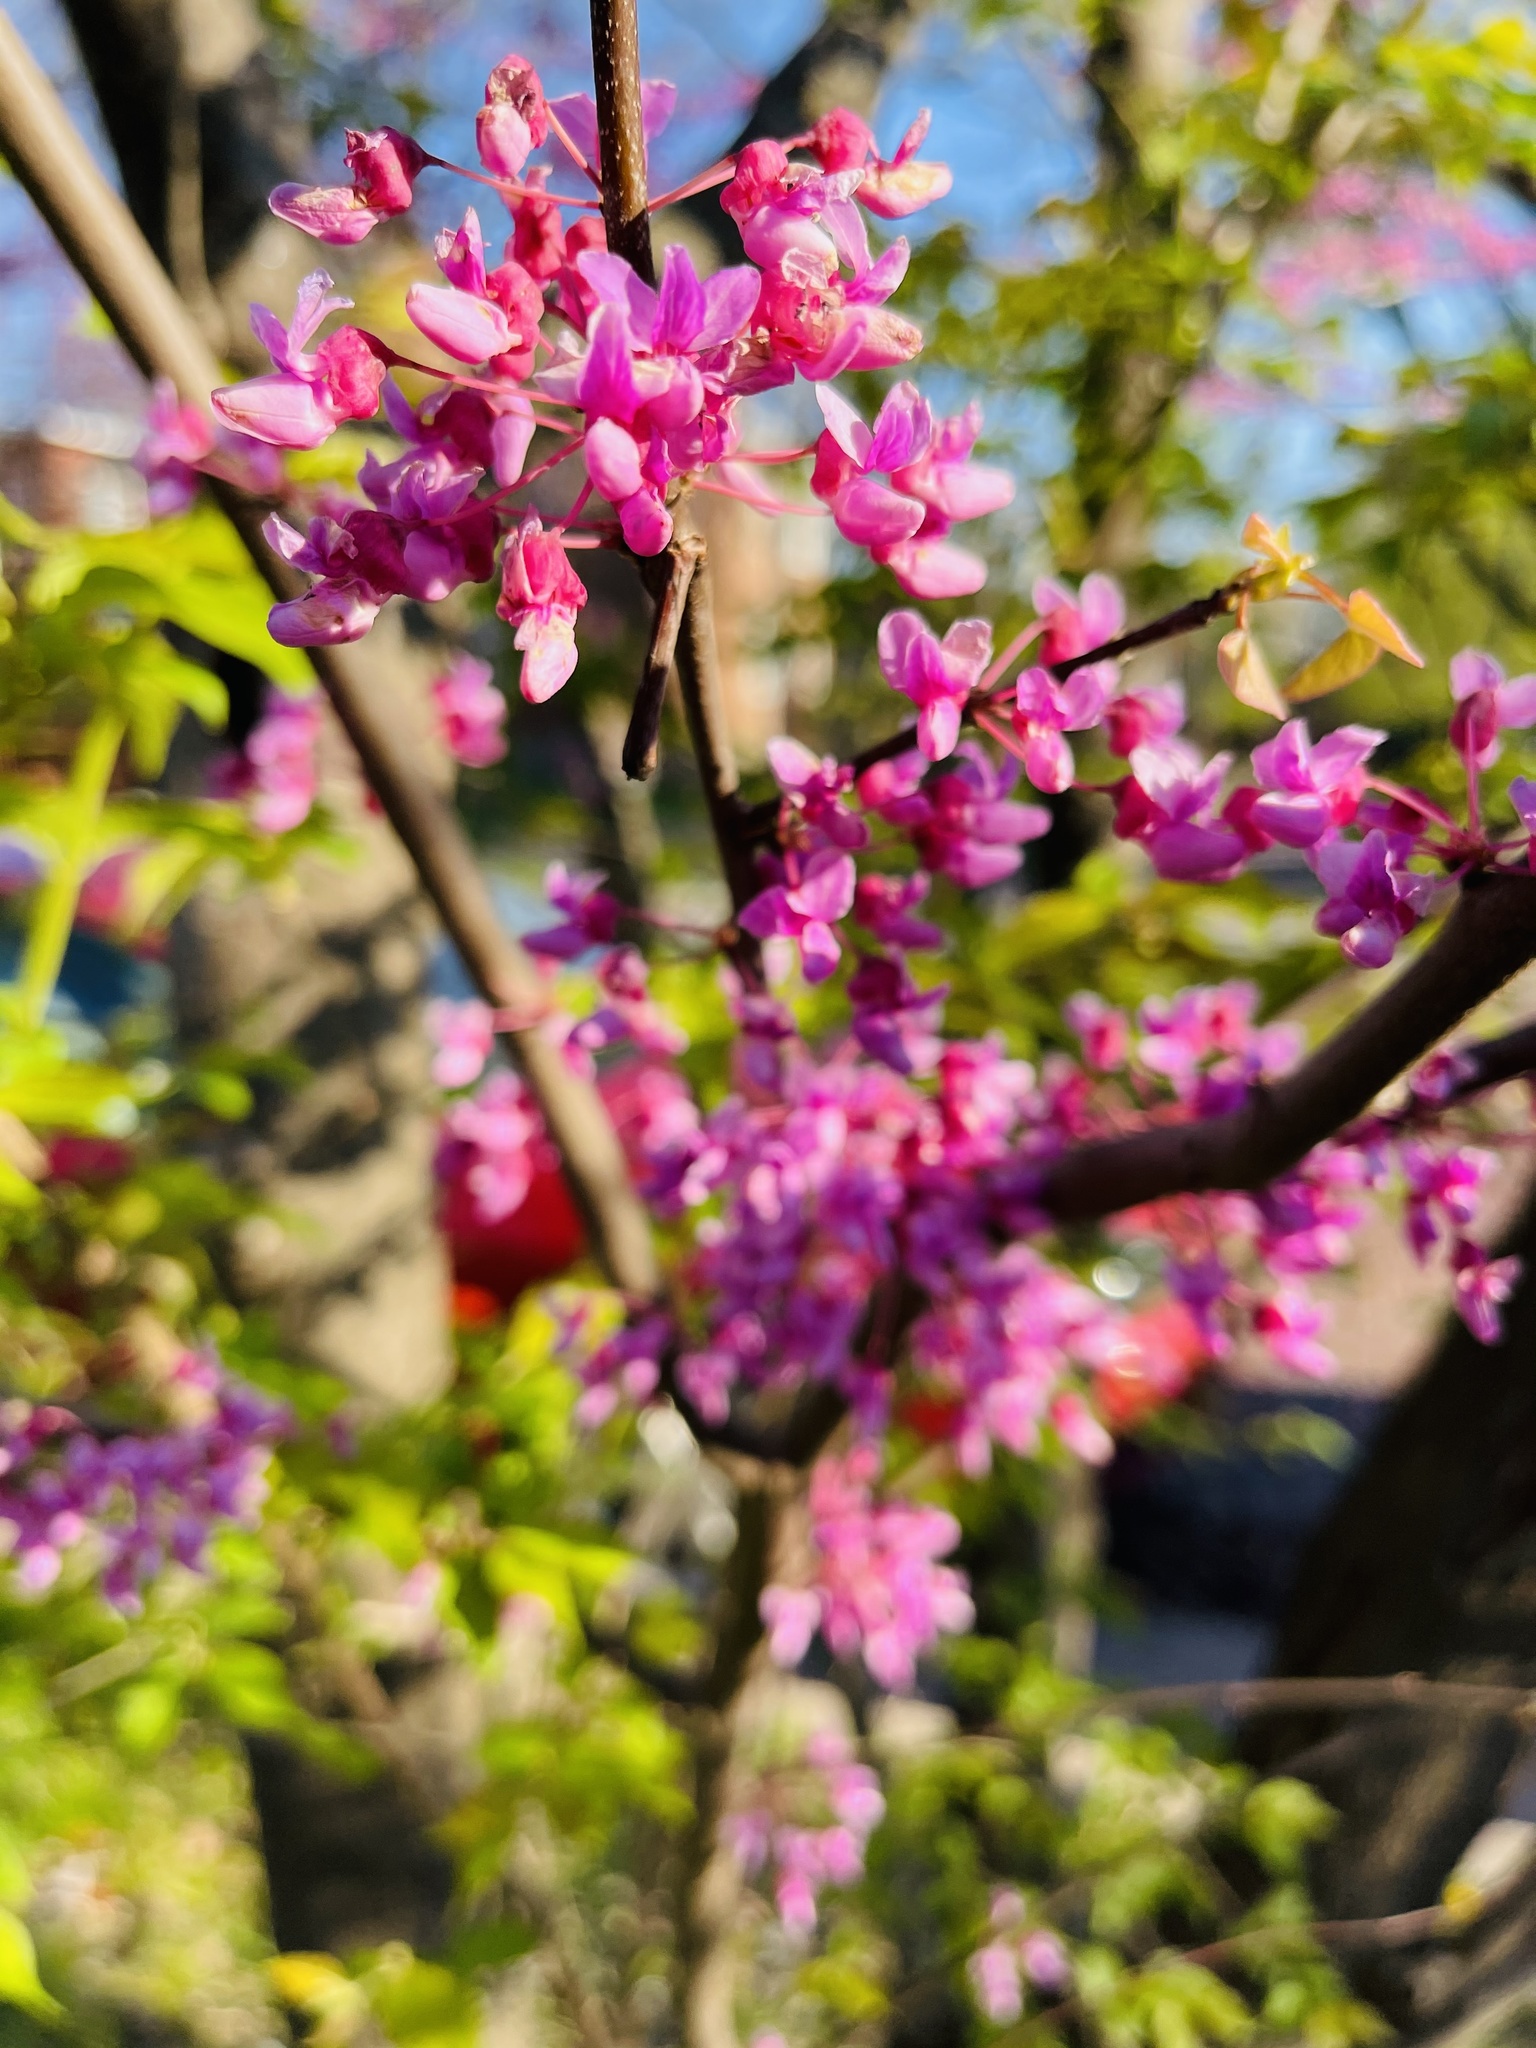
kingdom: Plantae
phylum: Tracheophyta
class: Magnoliopsida
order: Fabales
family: Fabaceae
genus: Cercis
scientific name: Cercis canadensis
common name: Eastern redbud
